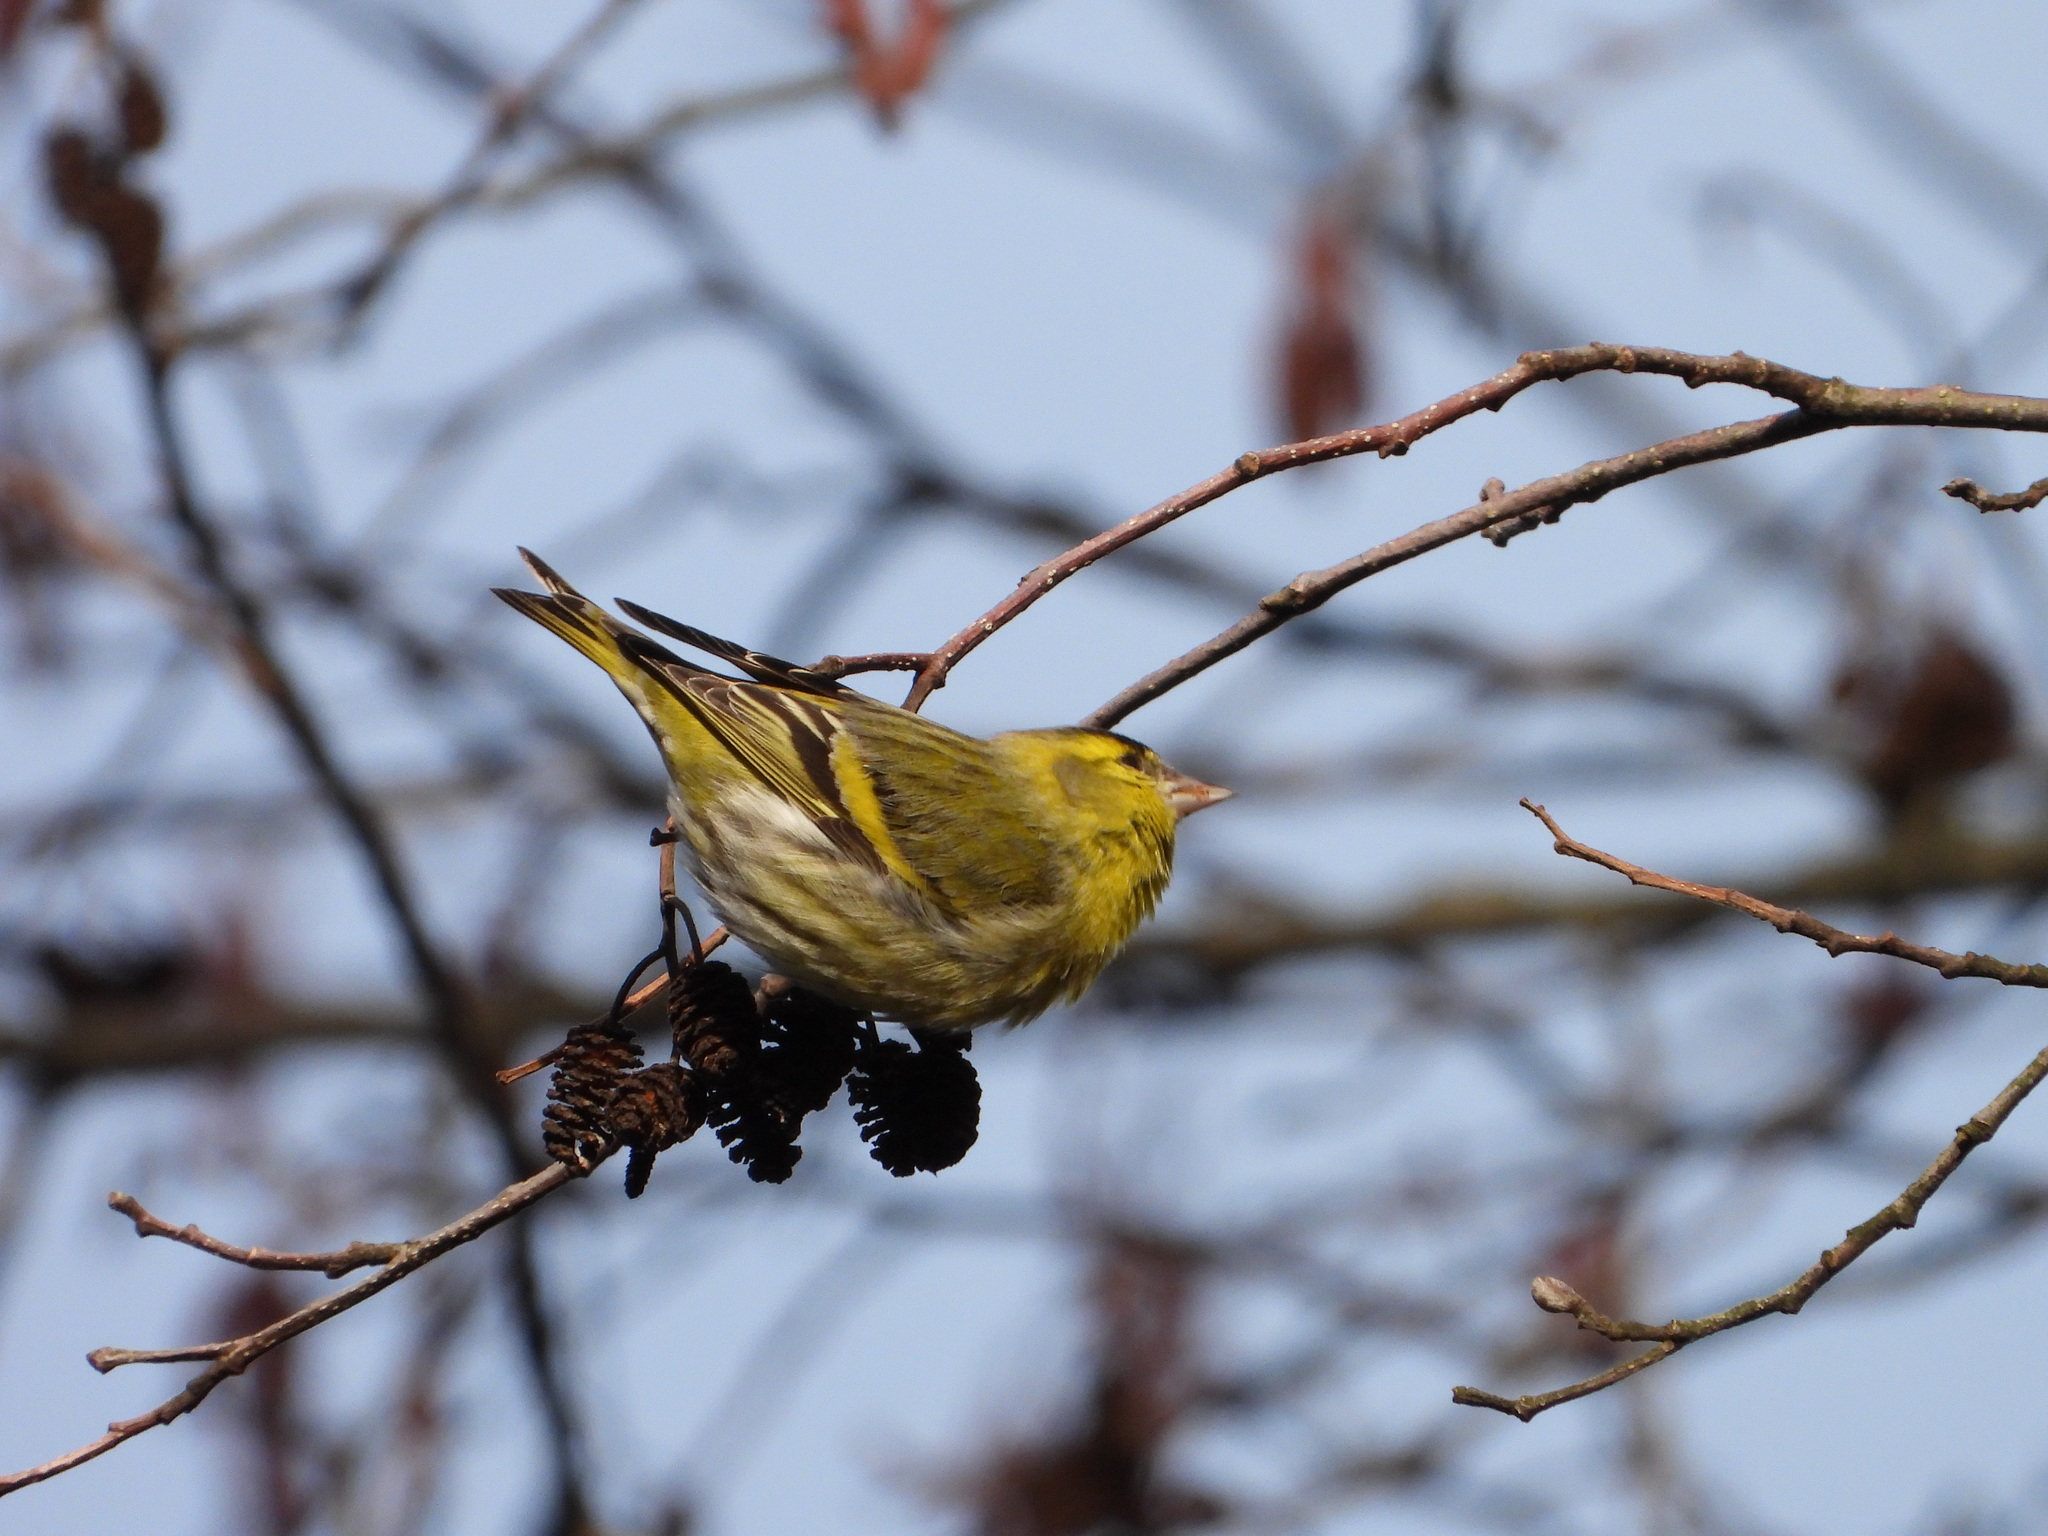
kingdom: Animalia
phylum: Chordata
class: Aves
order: Passeriformes
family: Fringillidae
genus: Spinus
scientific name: Spinus spinus
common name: Eurasian siskin
